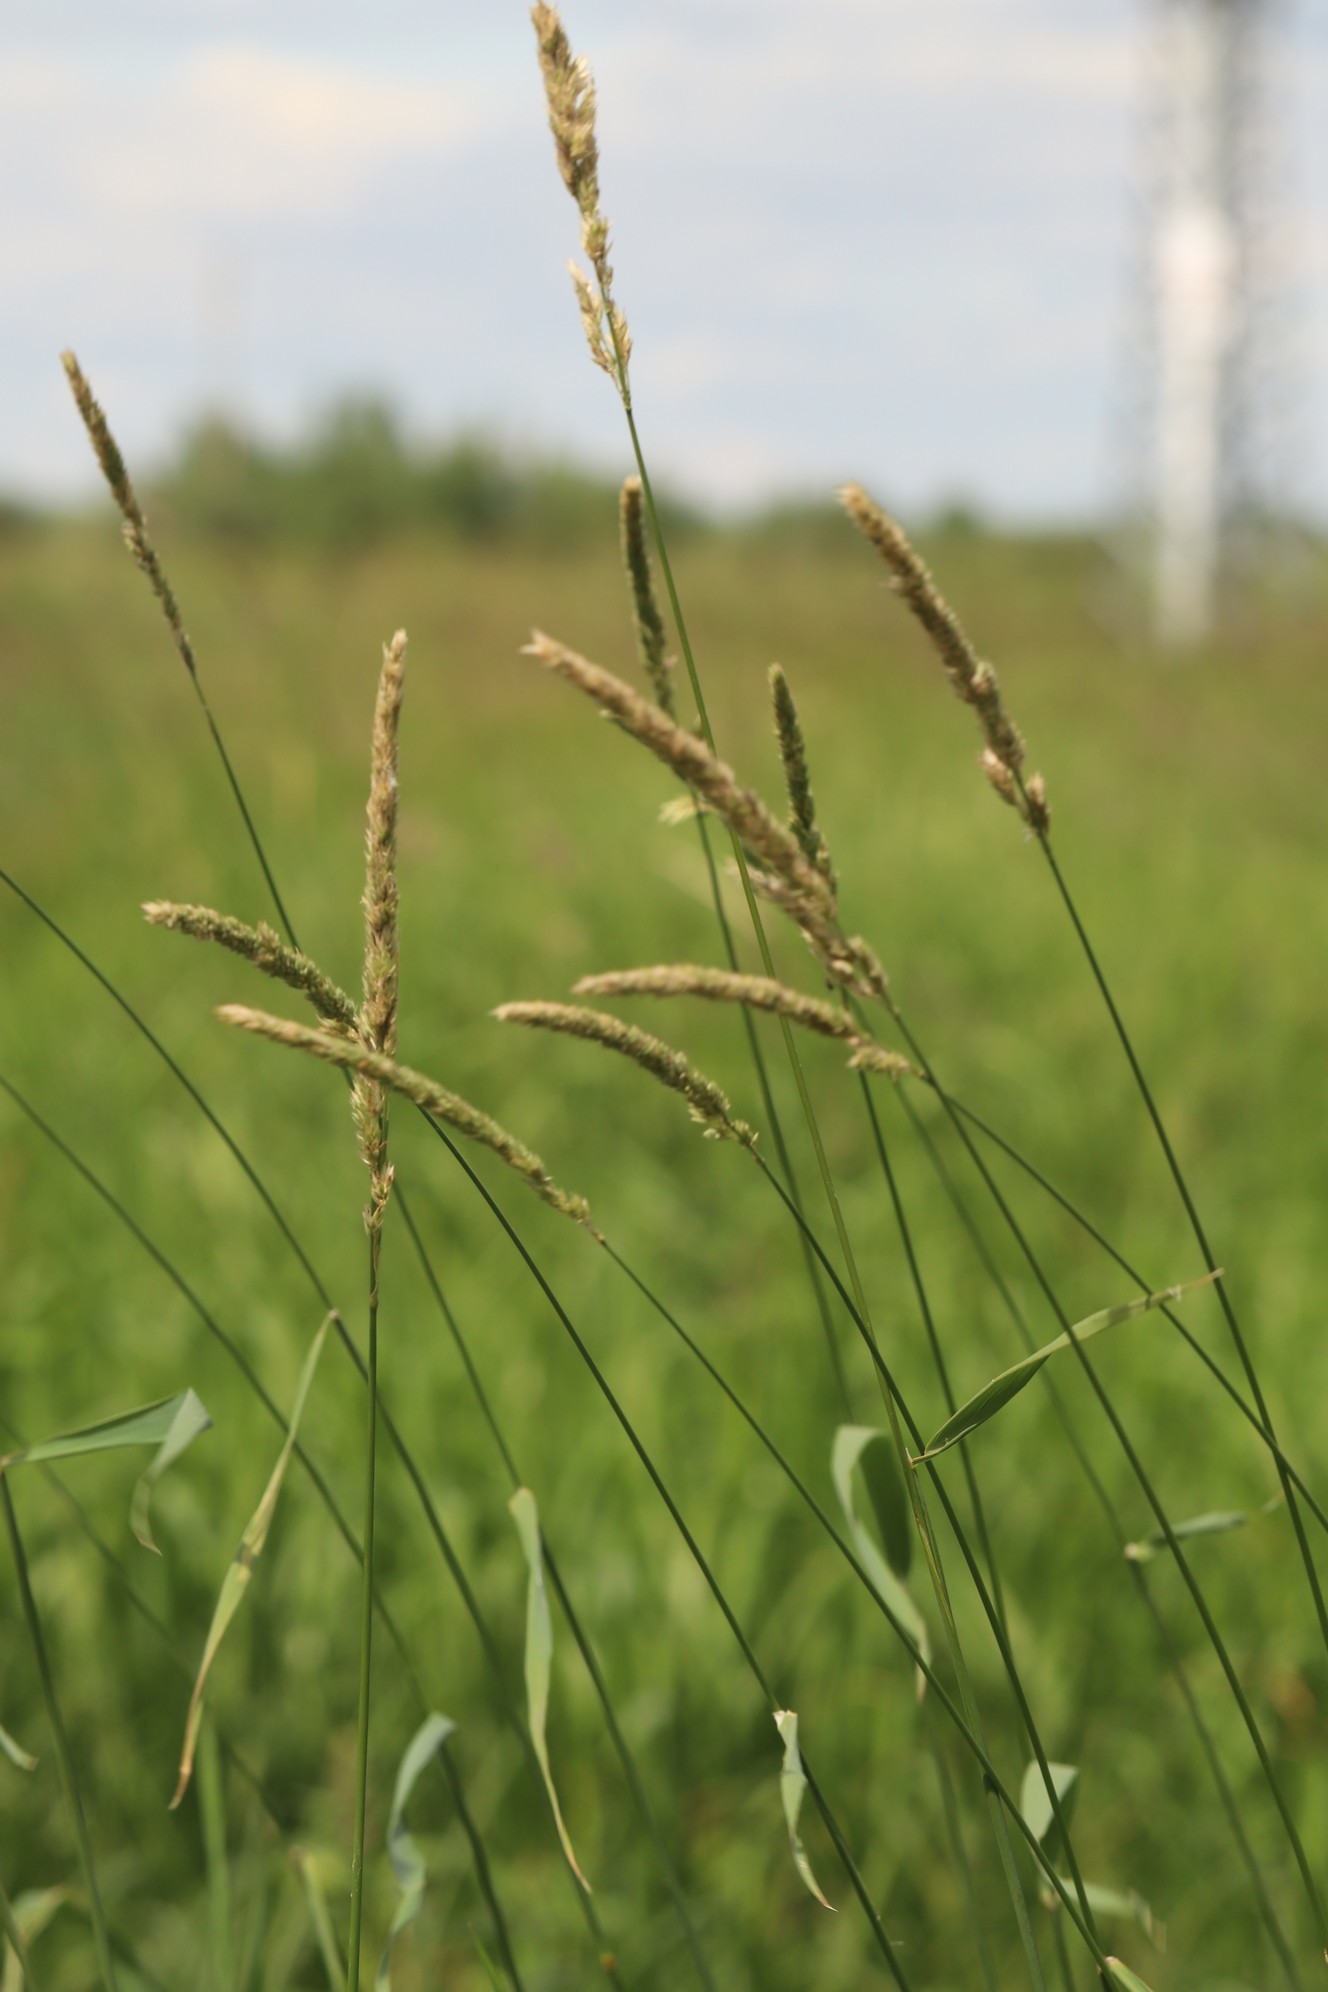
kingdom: Plantae
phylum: Tracheophyta
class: Liliopsida
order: Poales
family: Poaceae
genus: Phalaris
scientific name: Phalaris arundinacea
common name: Reed canary-grass
